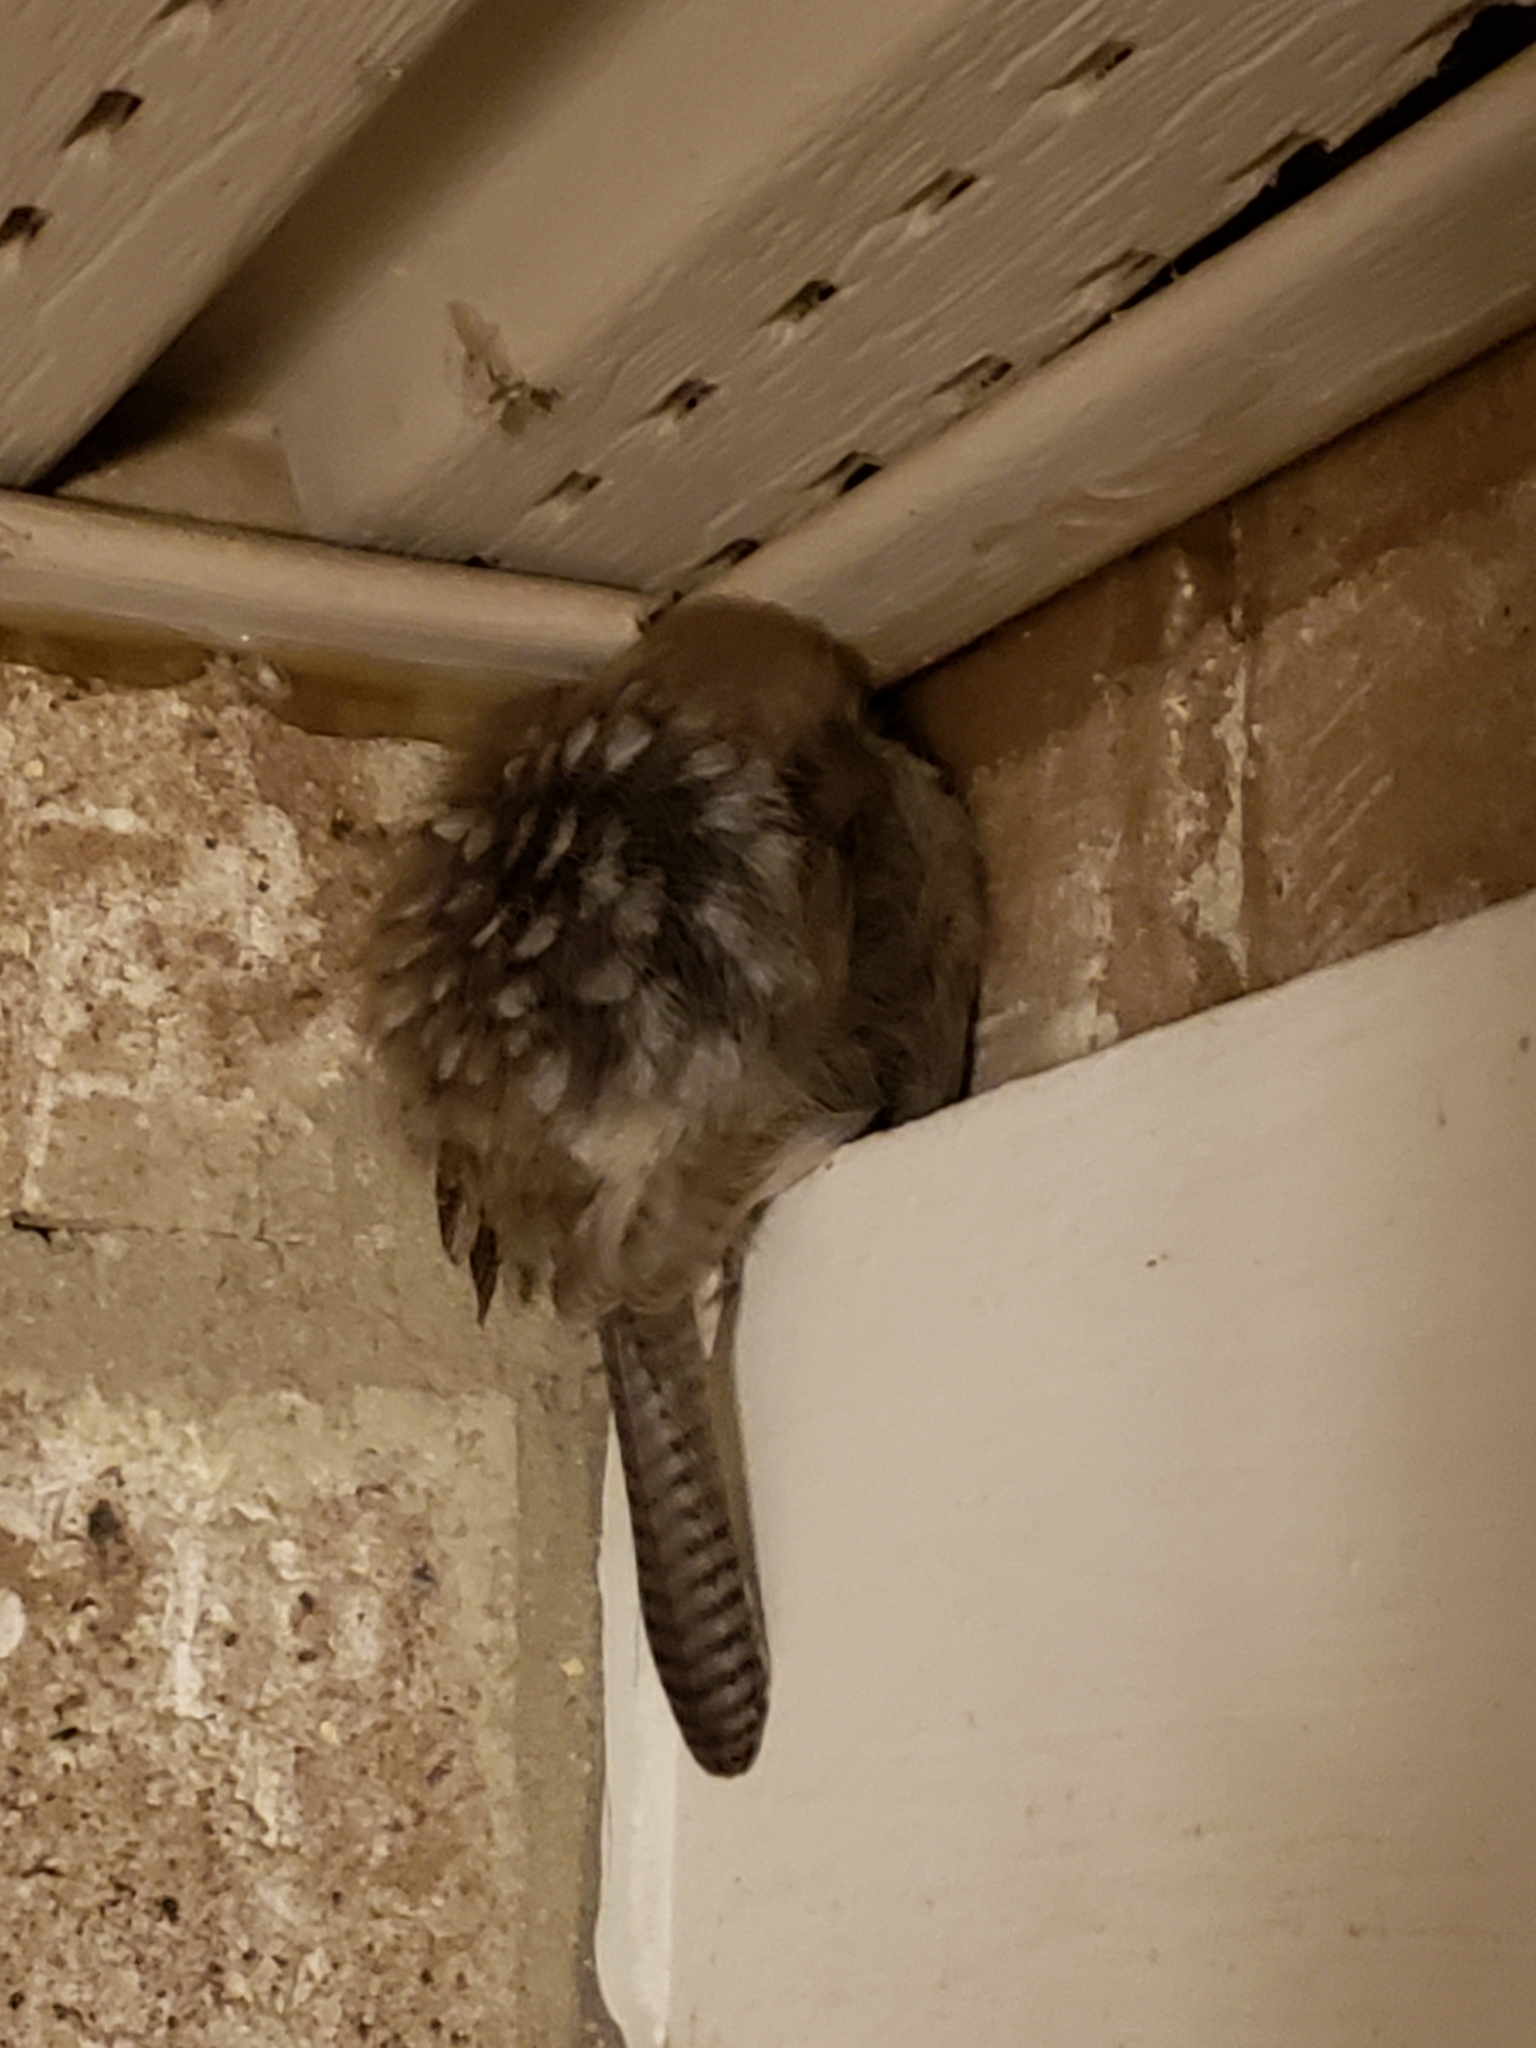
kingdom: Animalia
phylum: Chordata
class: Aves
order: Passeriformes
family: Troglodytidae
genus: Thryothorus
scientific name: Thryothorus ludovicianus
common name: Carolina wren
